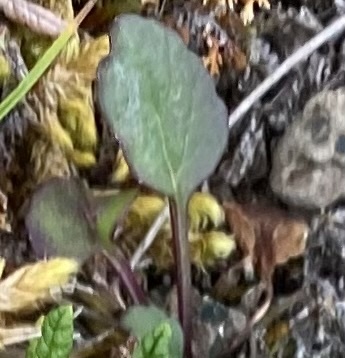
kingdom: Plantae
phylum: Tracheophyta
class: Magnoliopsida
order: Asterales
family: Campanulaceae
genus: Campanula
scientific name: Campanula rotundifolia
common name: Harebell
